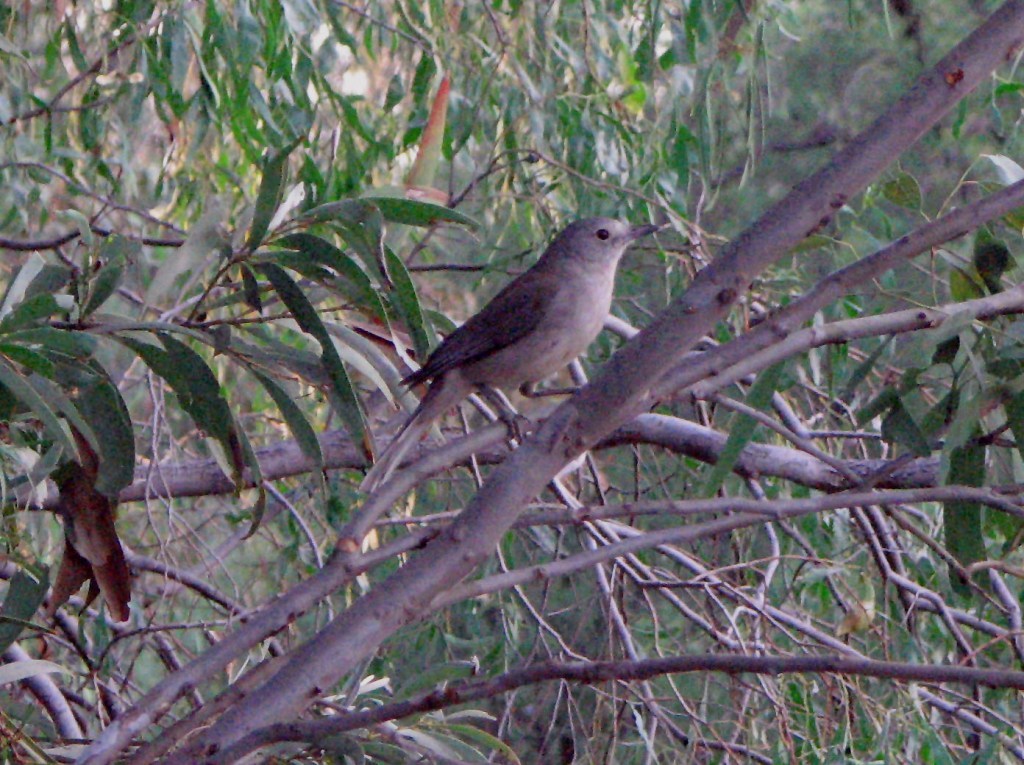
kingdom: Animalia
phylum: Chordata
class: Aves
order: Passeriformes
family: Pachycephalidae
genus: Colluricincla
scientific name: Colluricincla harmonica
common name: Grey shrikethrush
